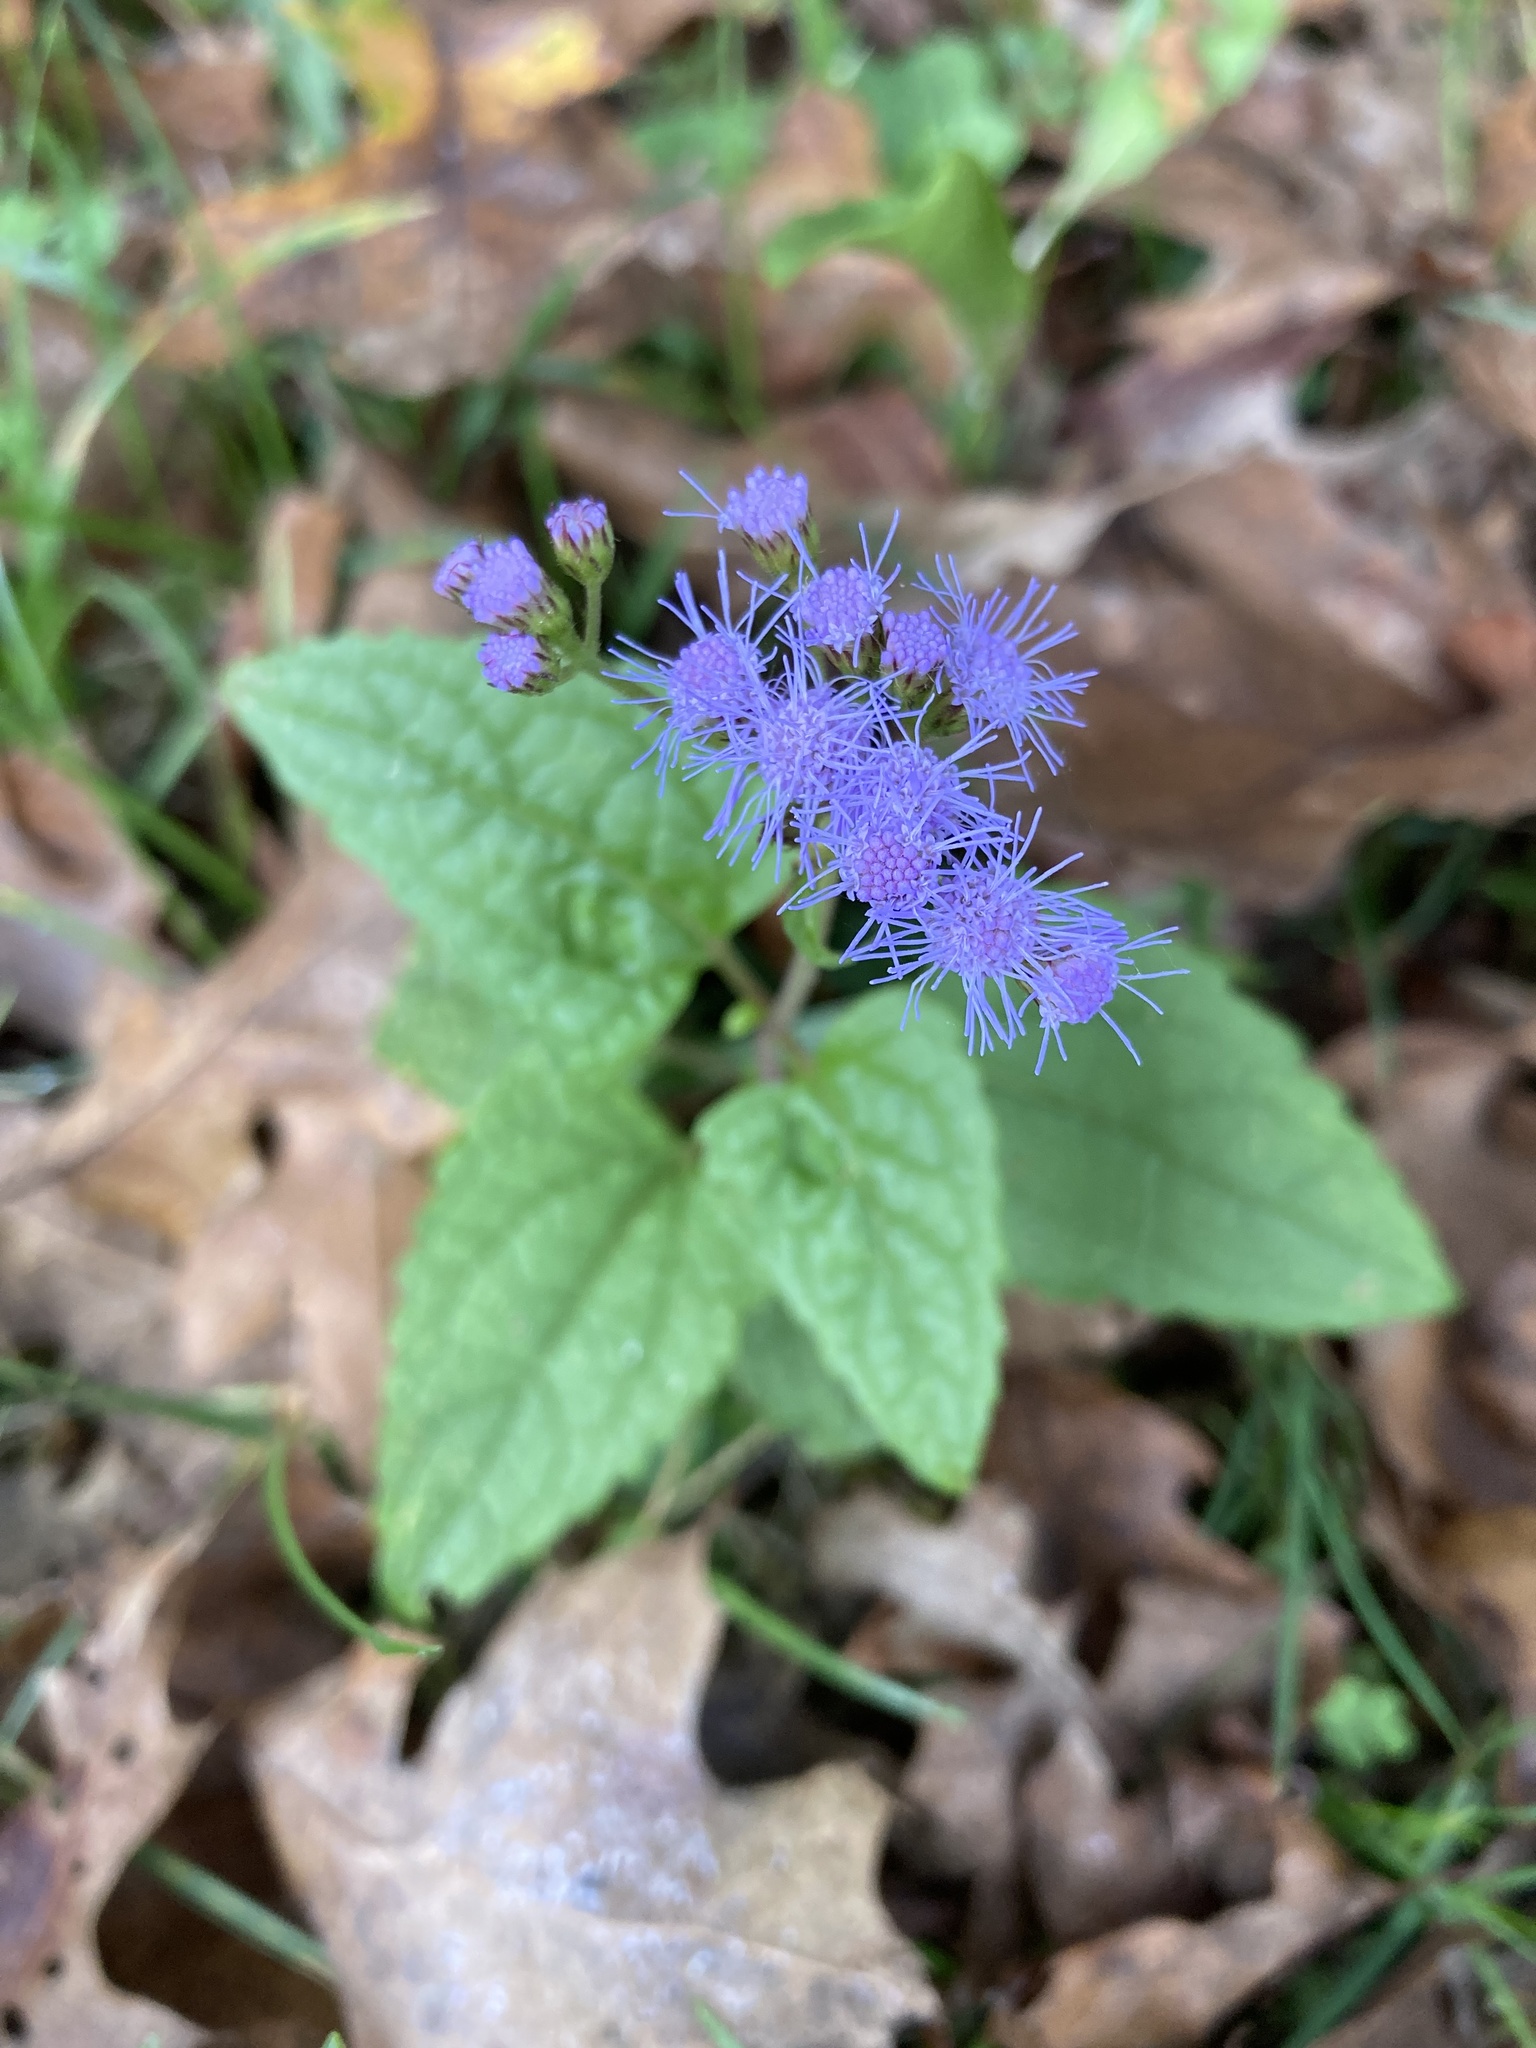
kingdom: Plantae
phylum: Tracheophyta
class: Magnoliopsida
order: Asterales
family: Asteraceae
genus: Conoclinium
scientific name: Conoclinium coelestinum
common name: Blue mistflower
